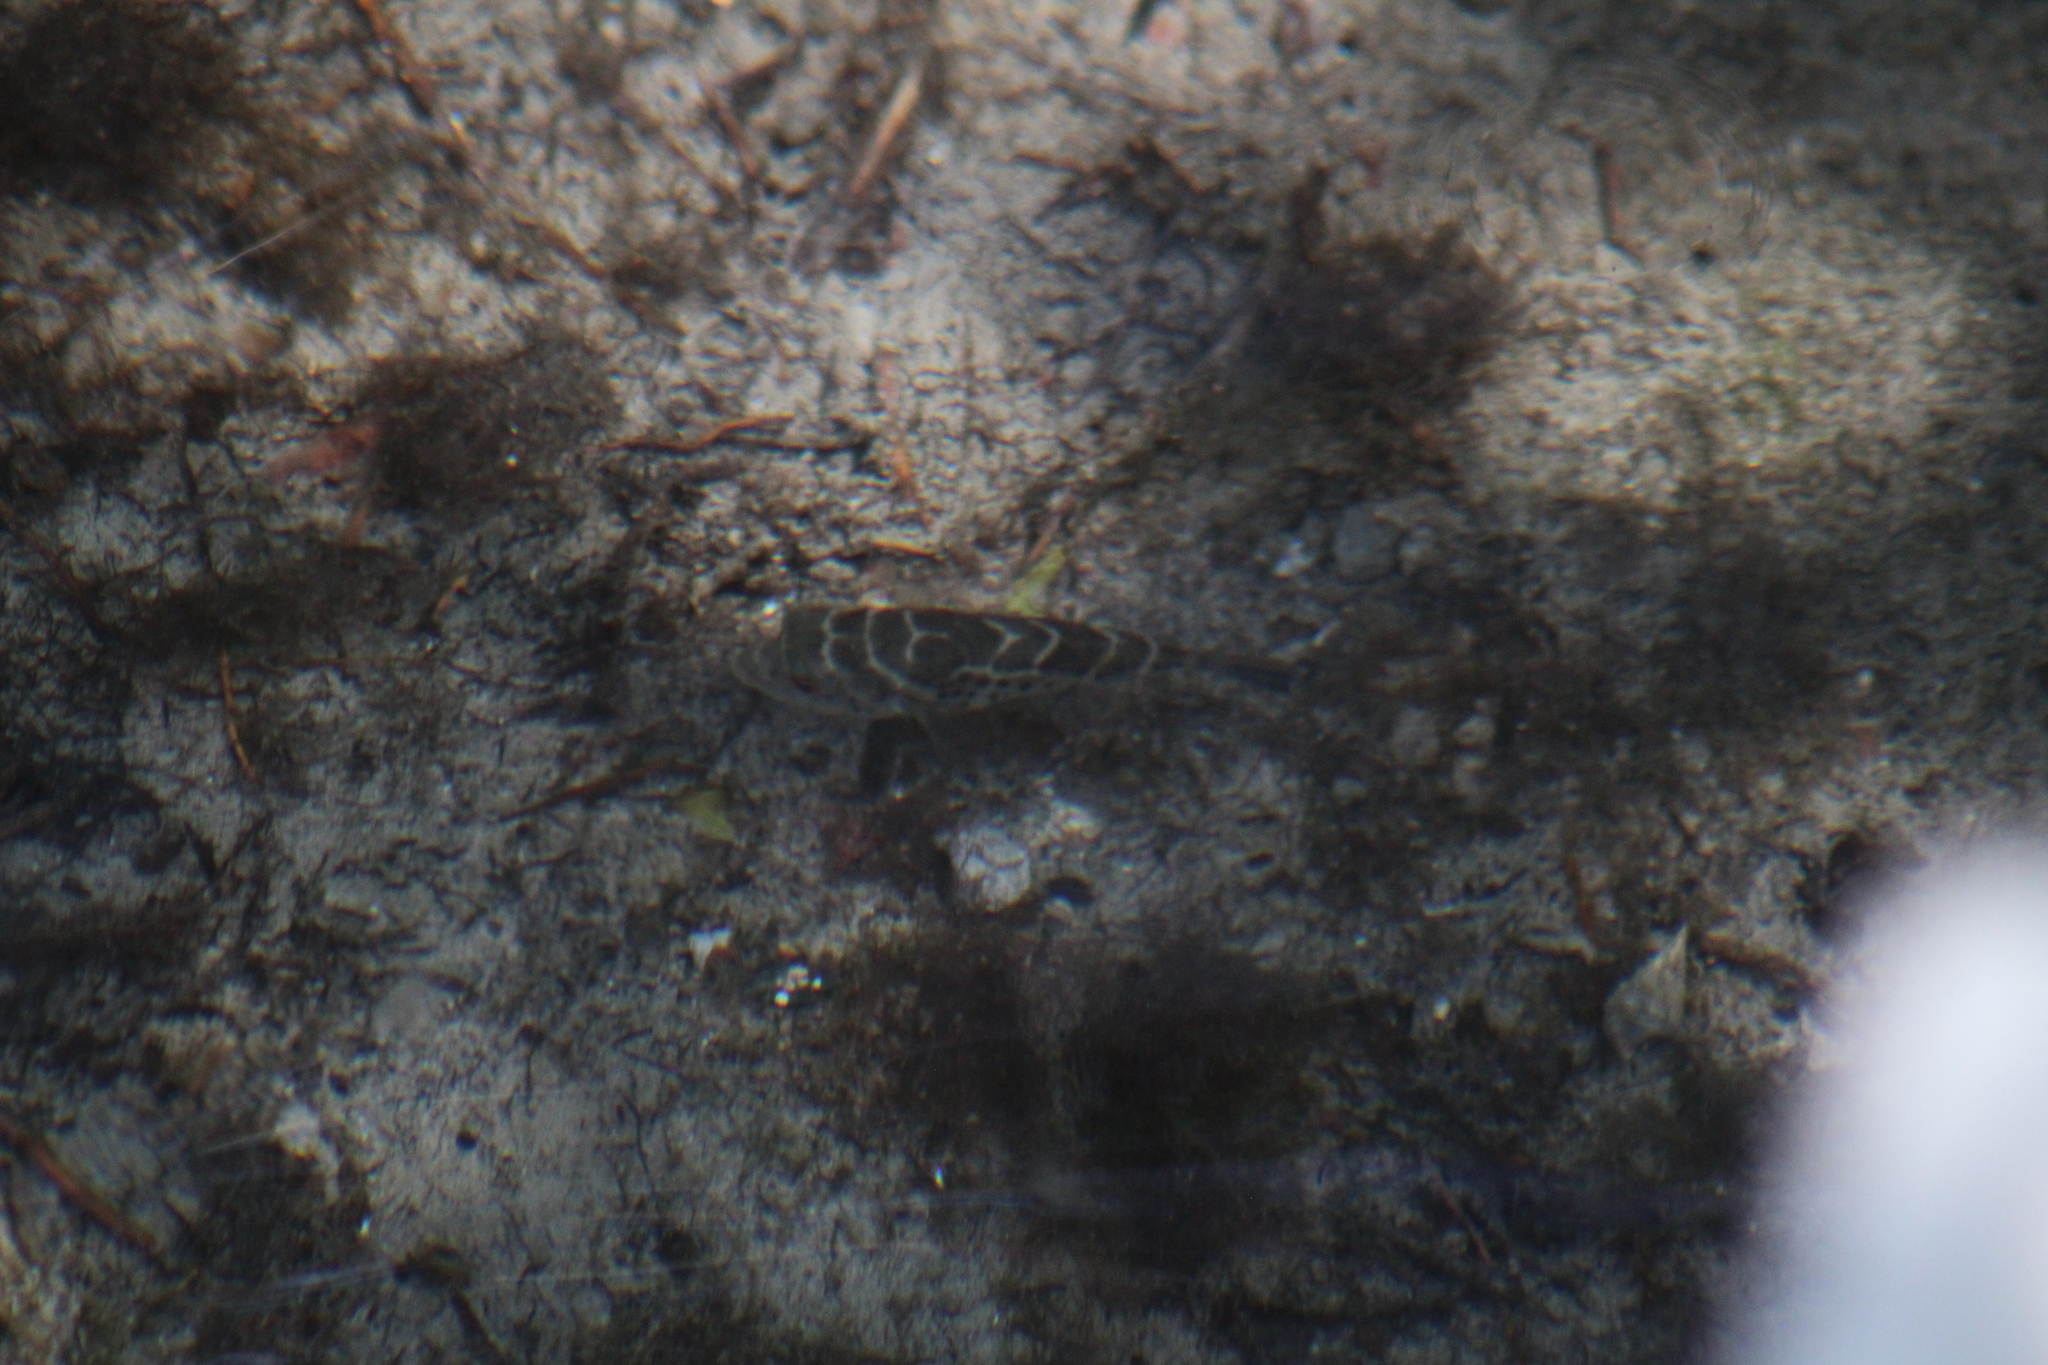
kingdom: Animalia
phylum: Chordata
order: Tetraodontiformes
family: Tetraodontidae
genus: Sphoeroides
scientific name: Sphoeroides annulatus
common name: Bullseye puffer
